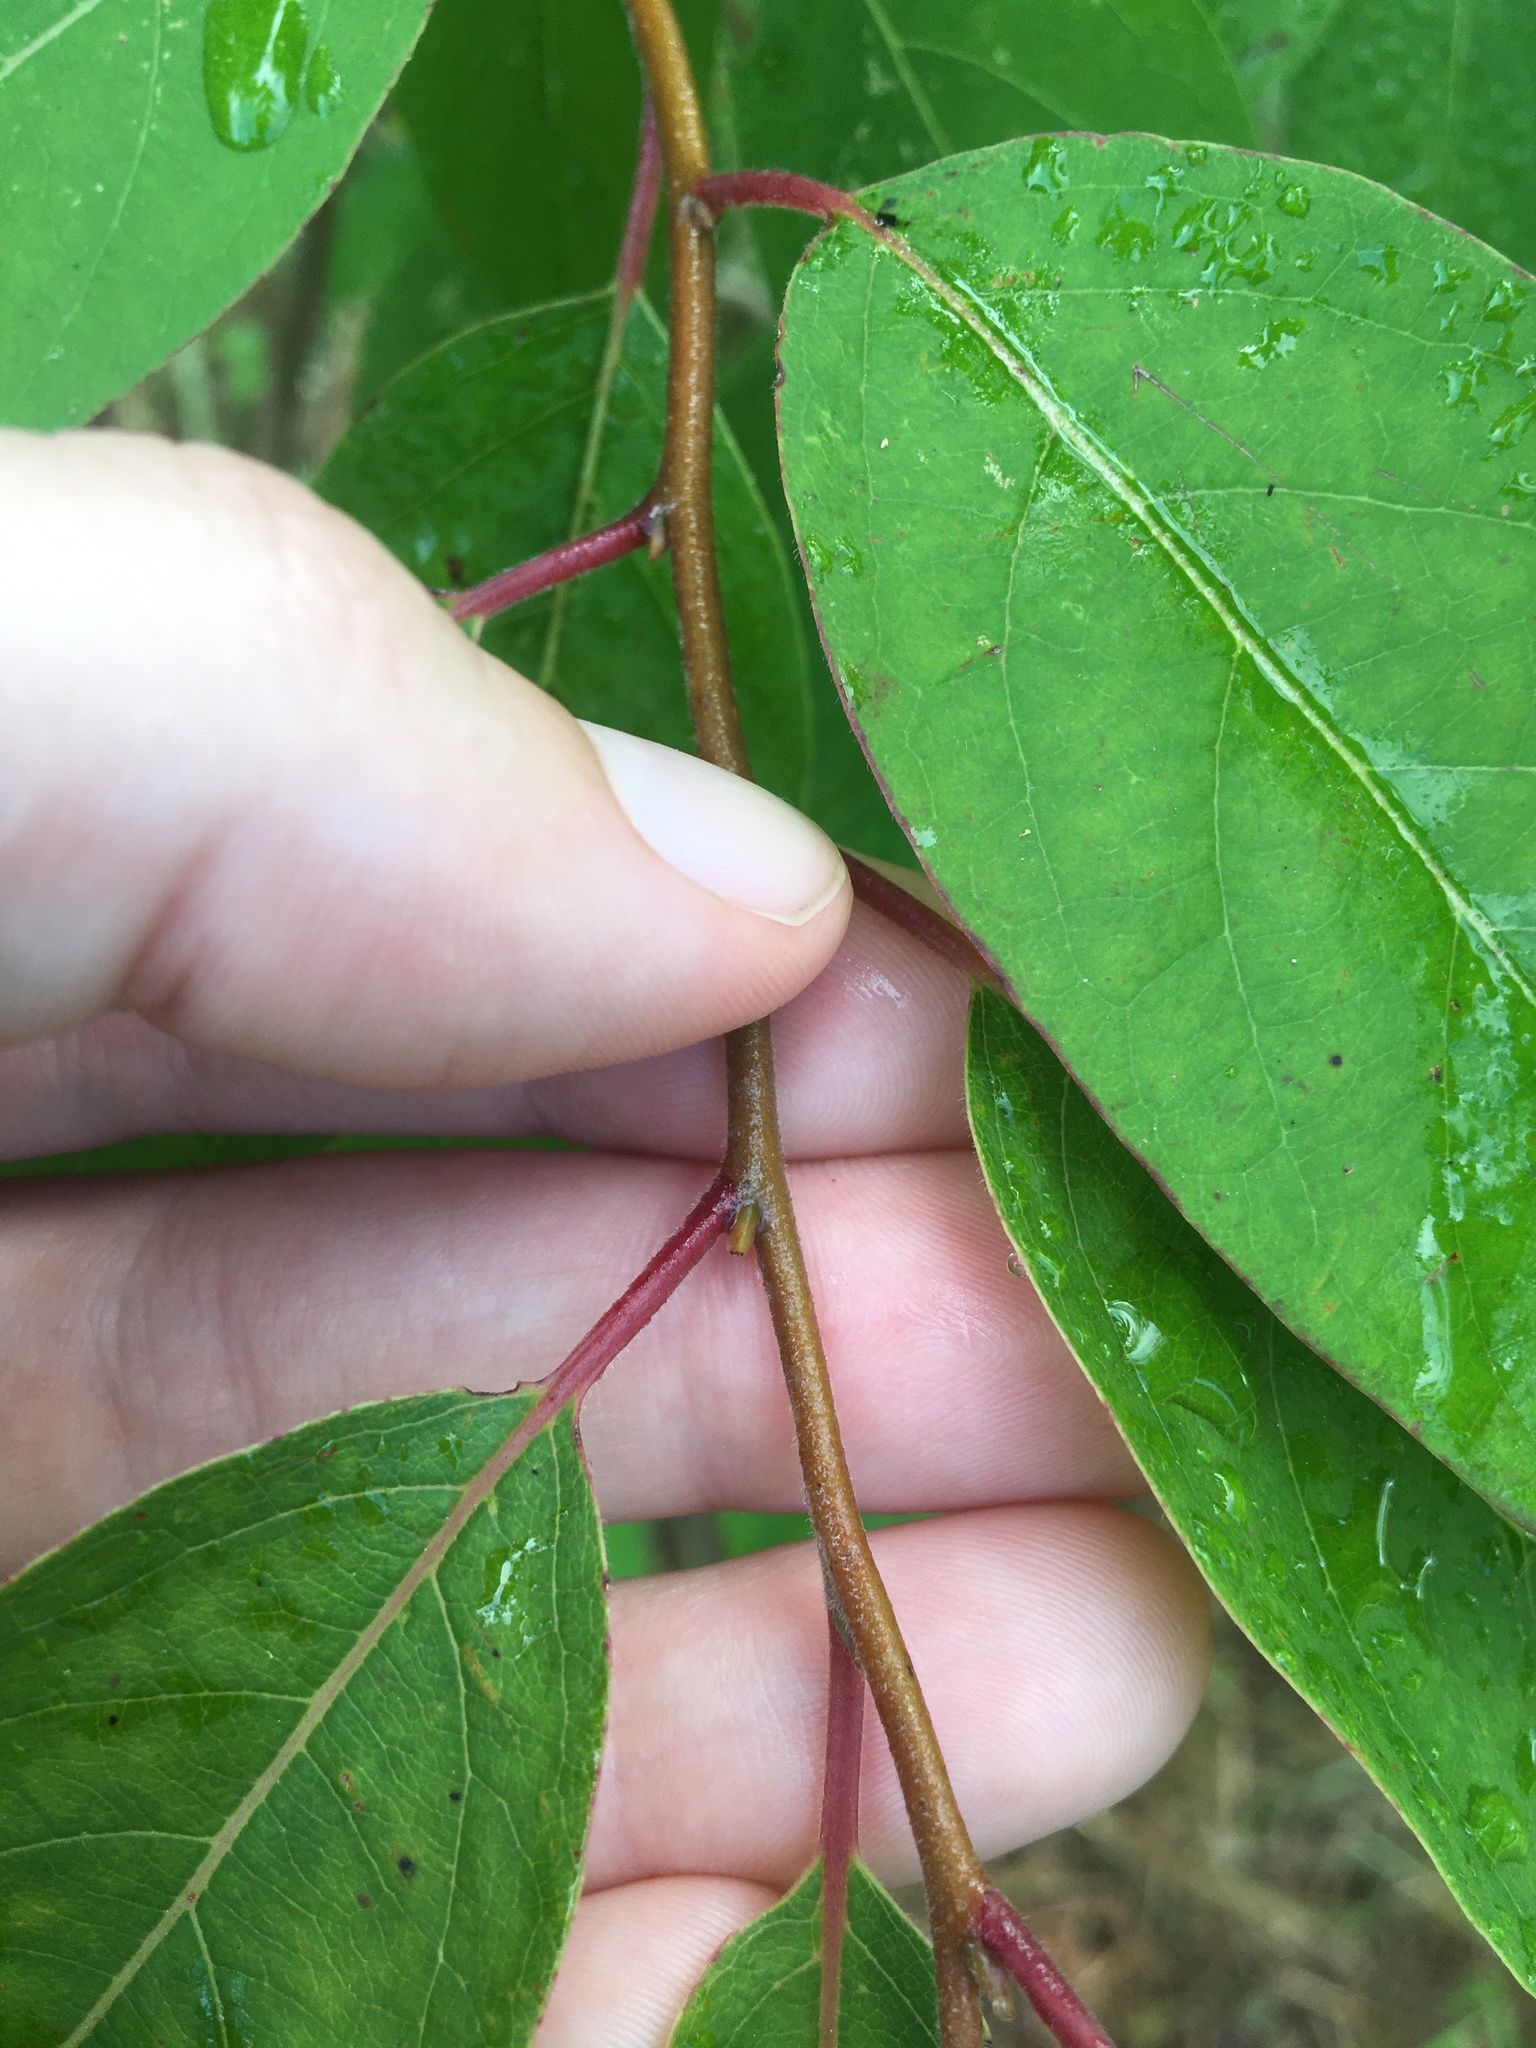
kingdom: Plantae
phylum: Tracheophyta
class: Magnoliopsida
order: Ericales
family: Ebenaceae
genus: Diospyros
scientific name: Diospyros virginiana
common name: Persimmon
